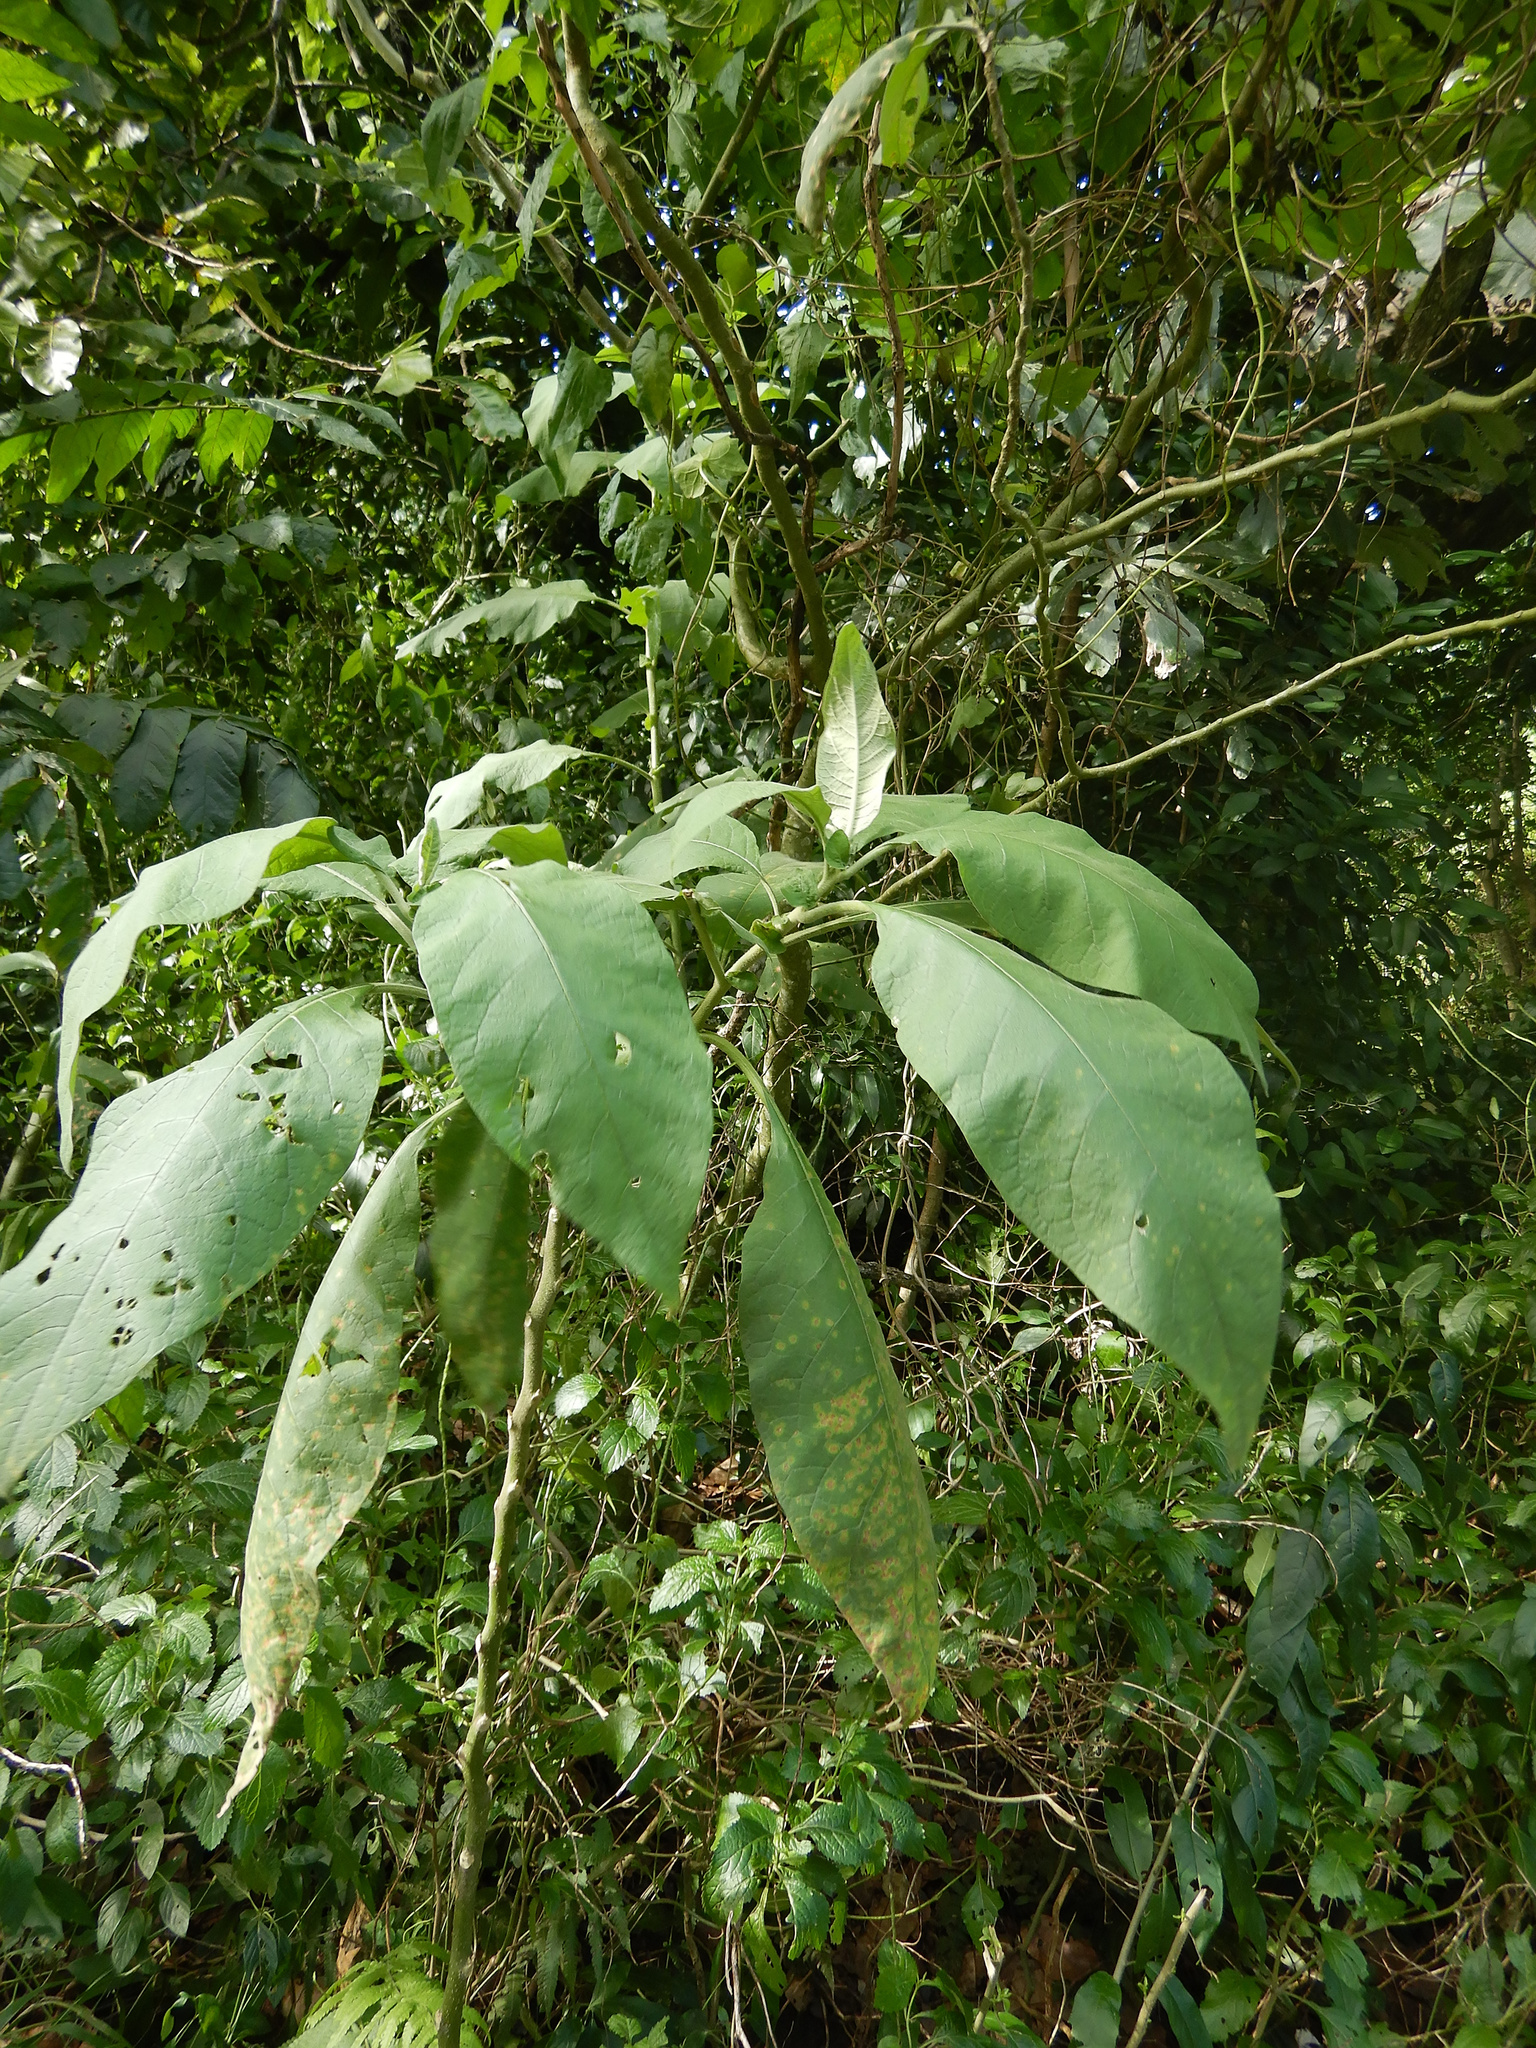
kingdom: Plantae
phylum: Tracheophyta
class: Magnoliopsida
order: Solanales
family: Solanaceae
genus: Solanum
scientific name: Solanum mauritianum
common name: Earleaf nightshade
